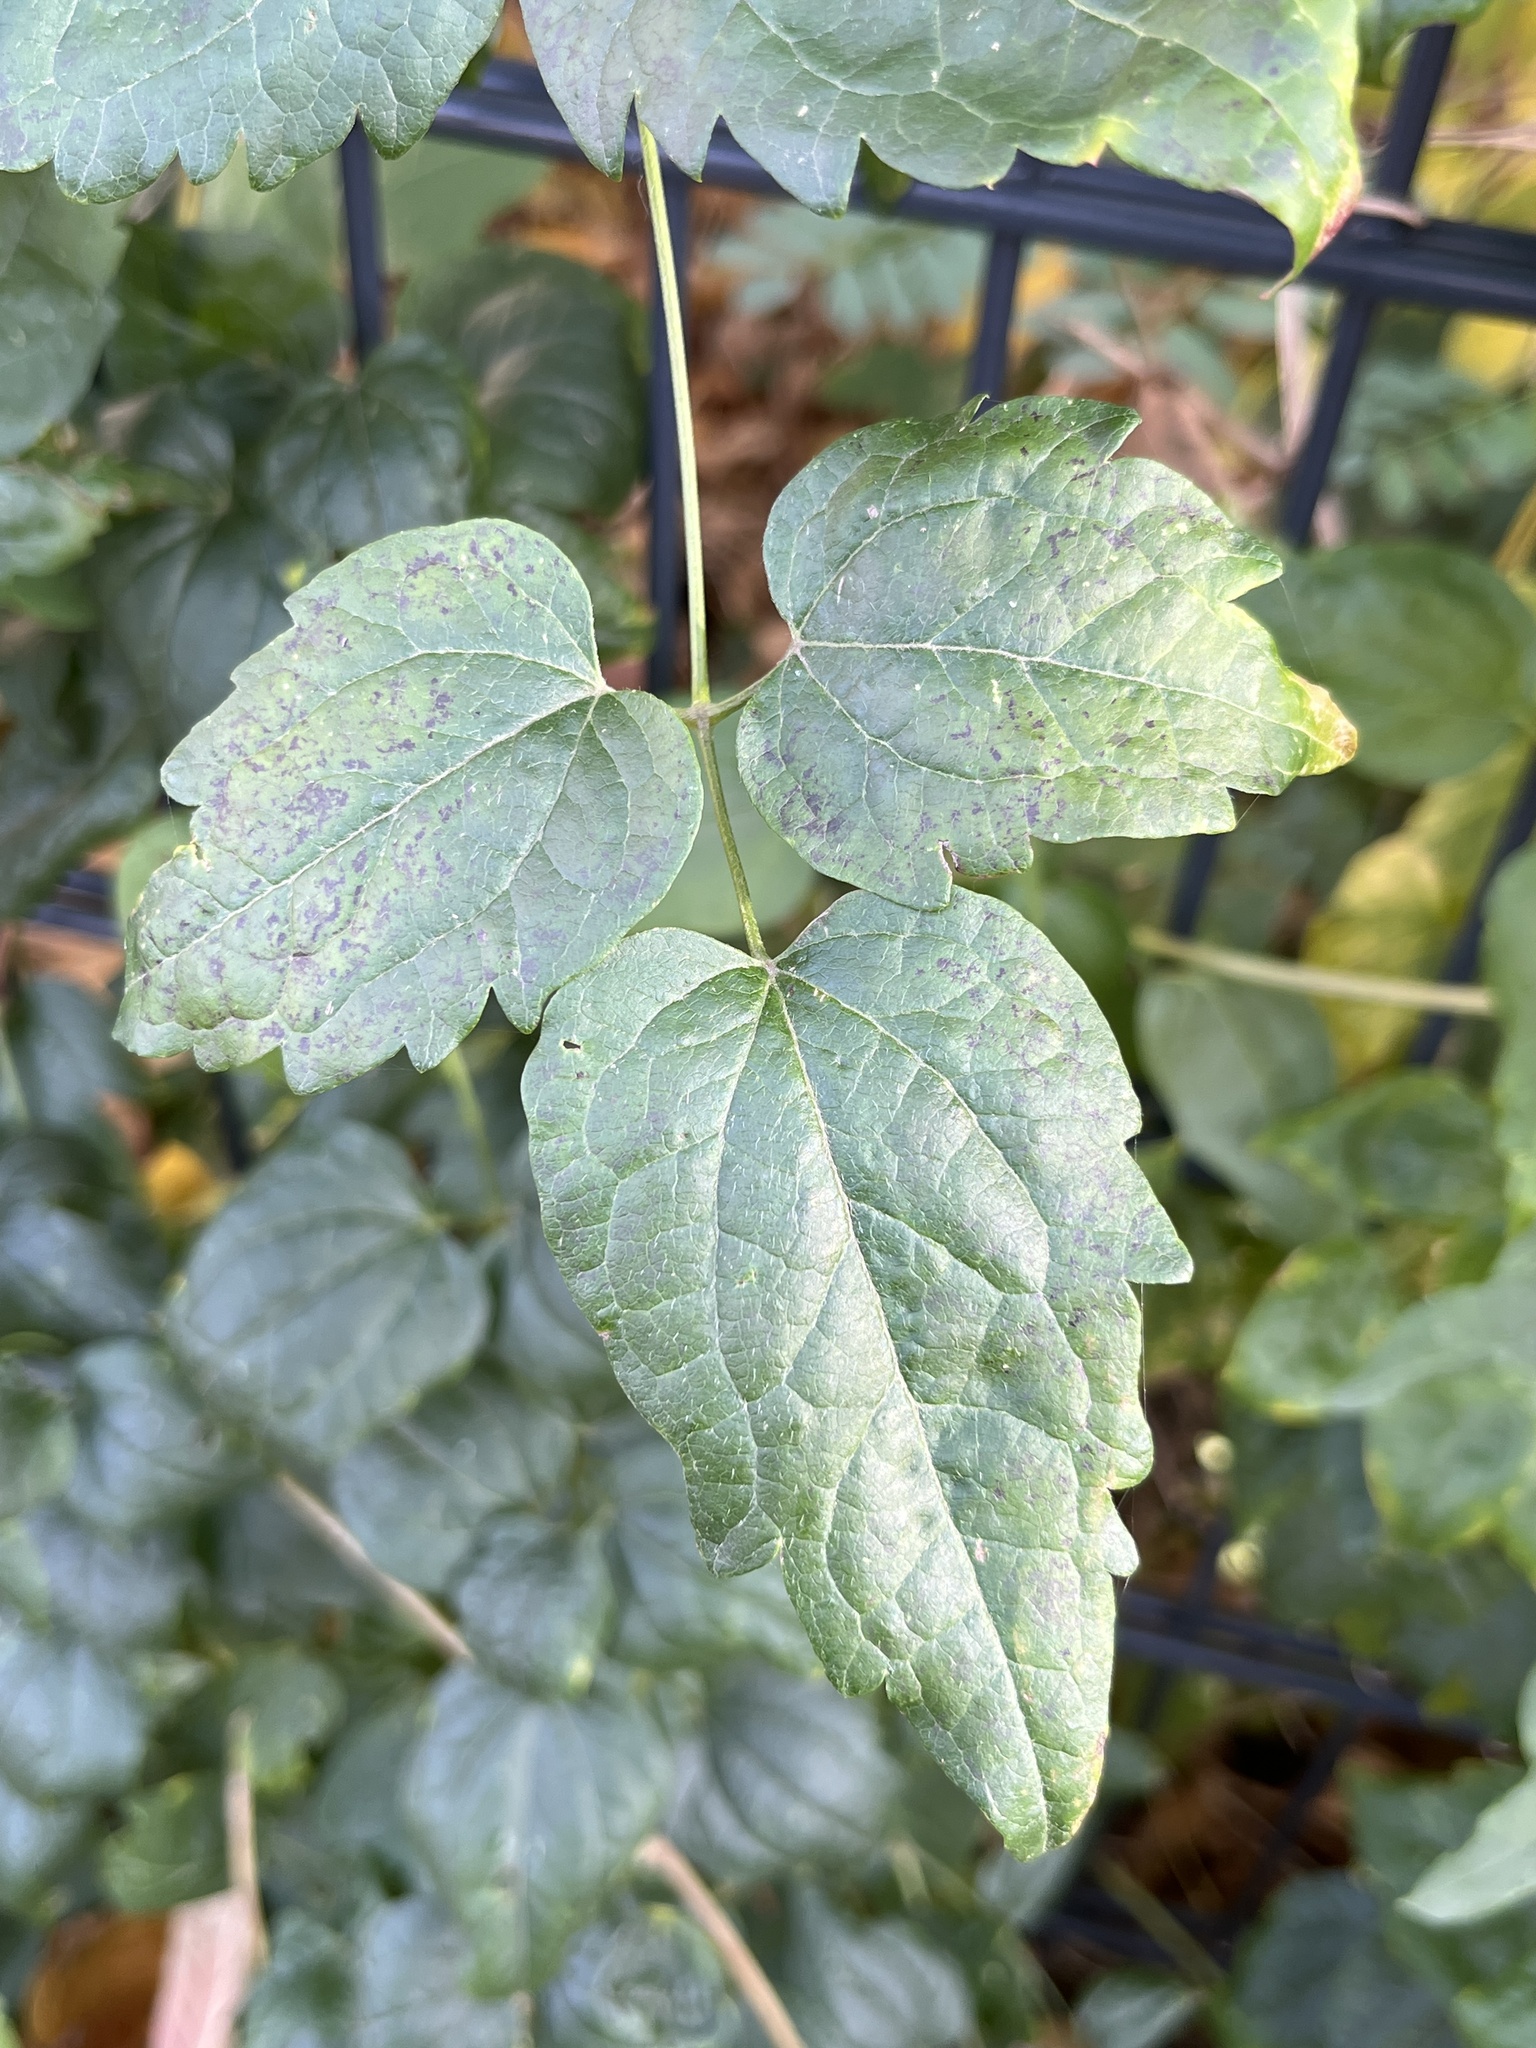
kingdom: Plantae
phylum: Tracheophyta
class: Magnoliopsida
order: Ranunculales
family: Ranunculaceae
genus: Clematis
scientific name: Clematis vitalba
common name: Evergreen clematis
